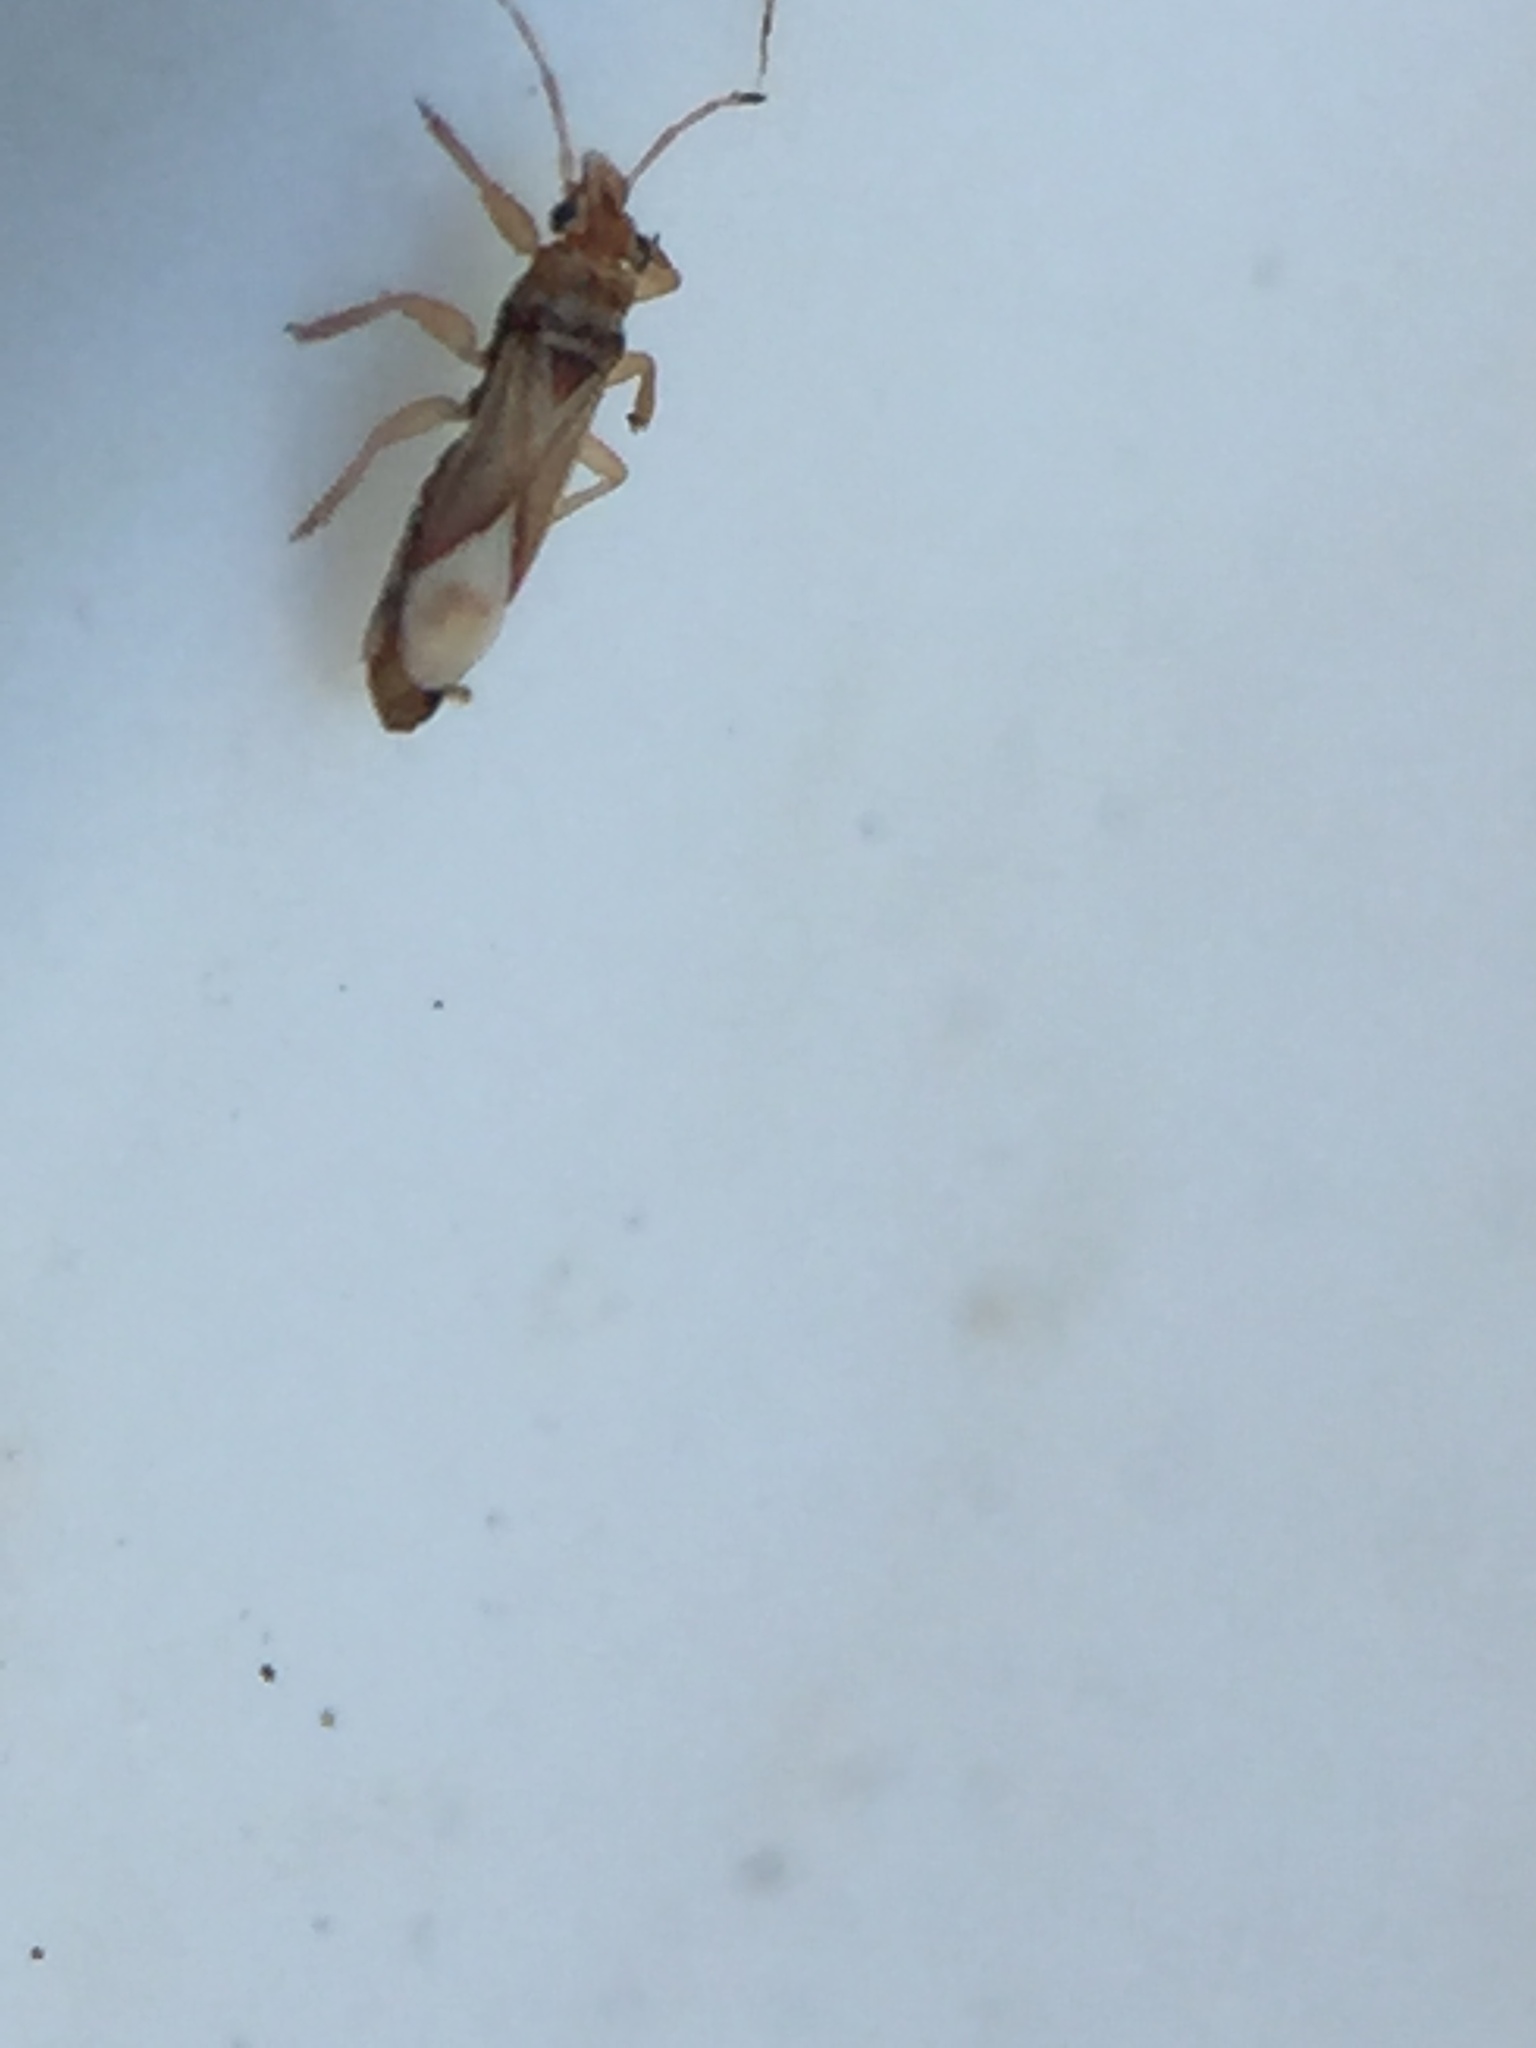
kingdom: Animalia
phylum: Arthropoda
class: Insecta
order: Hemiptera
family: Thaumastocoridae
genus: Thaumastocoris
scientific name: Thaumastocoris peregrinus
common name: Bronze bug
